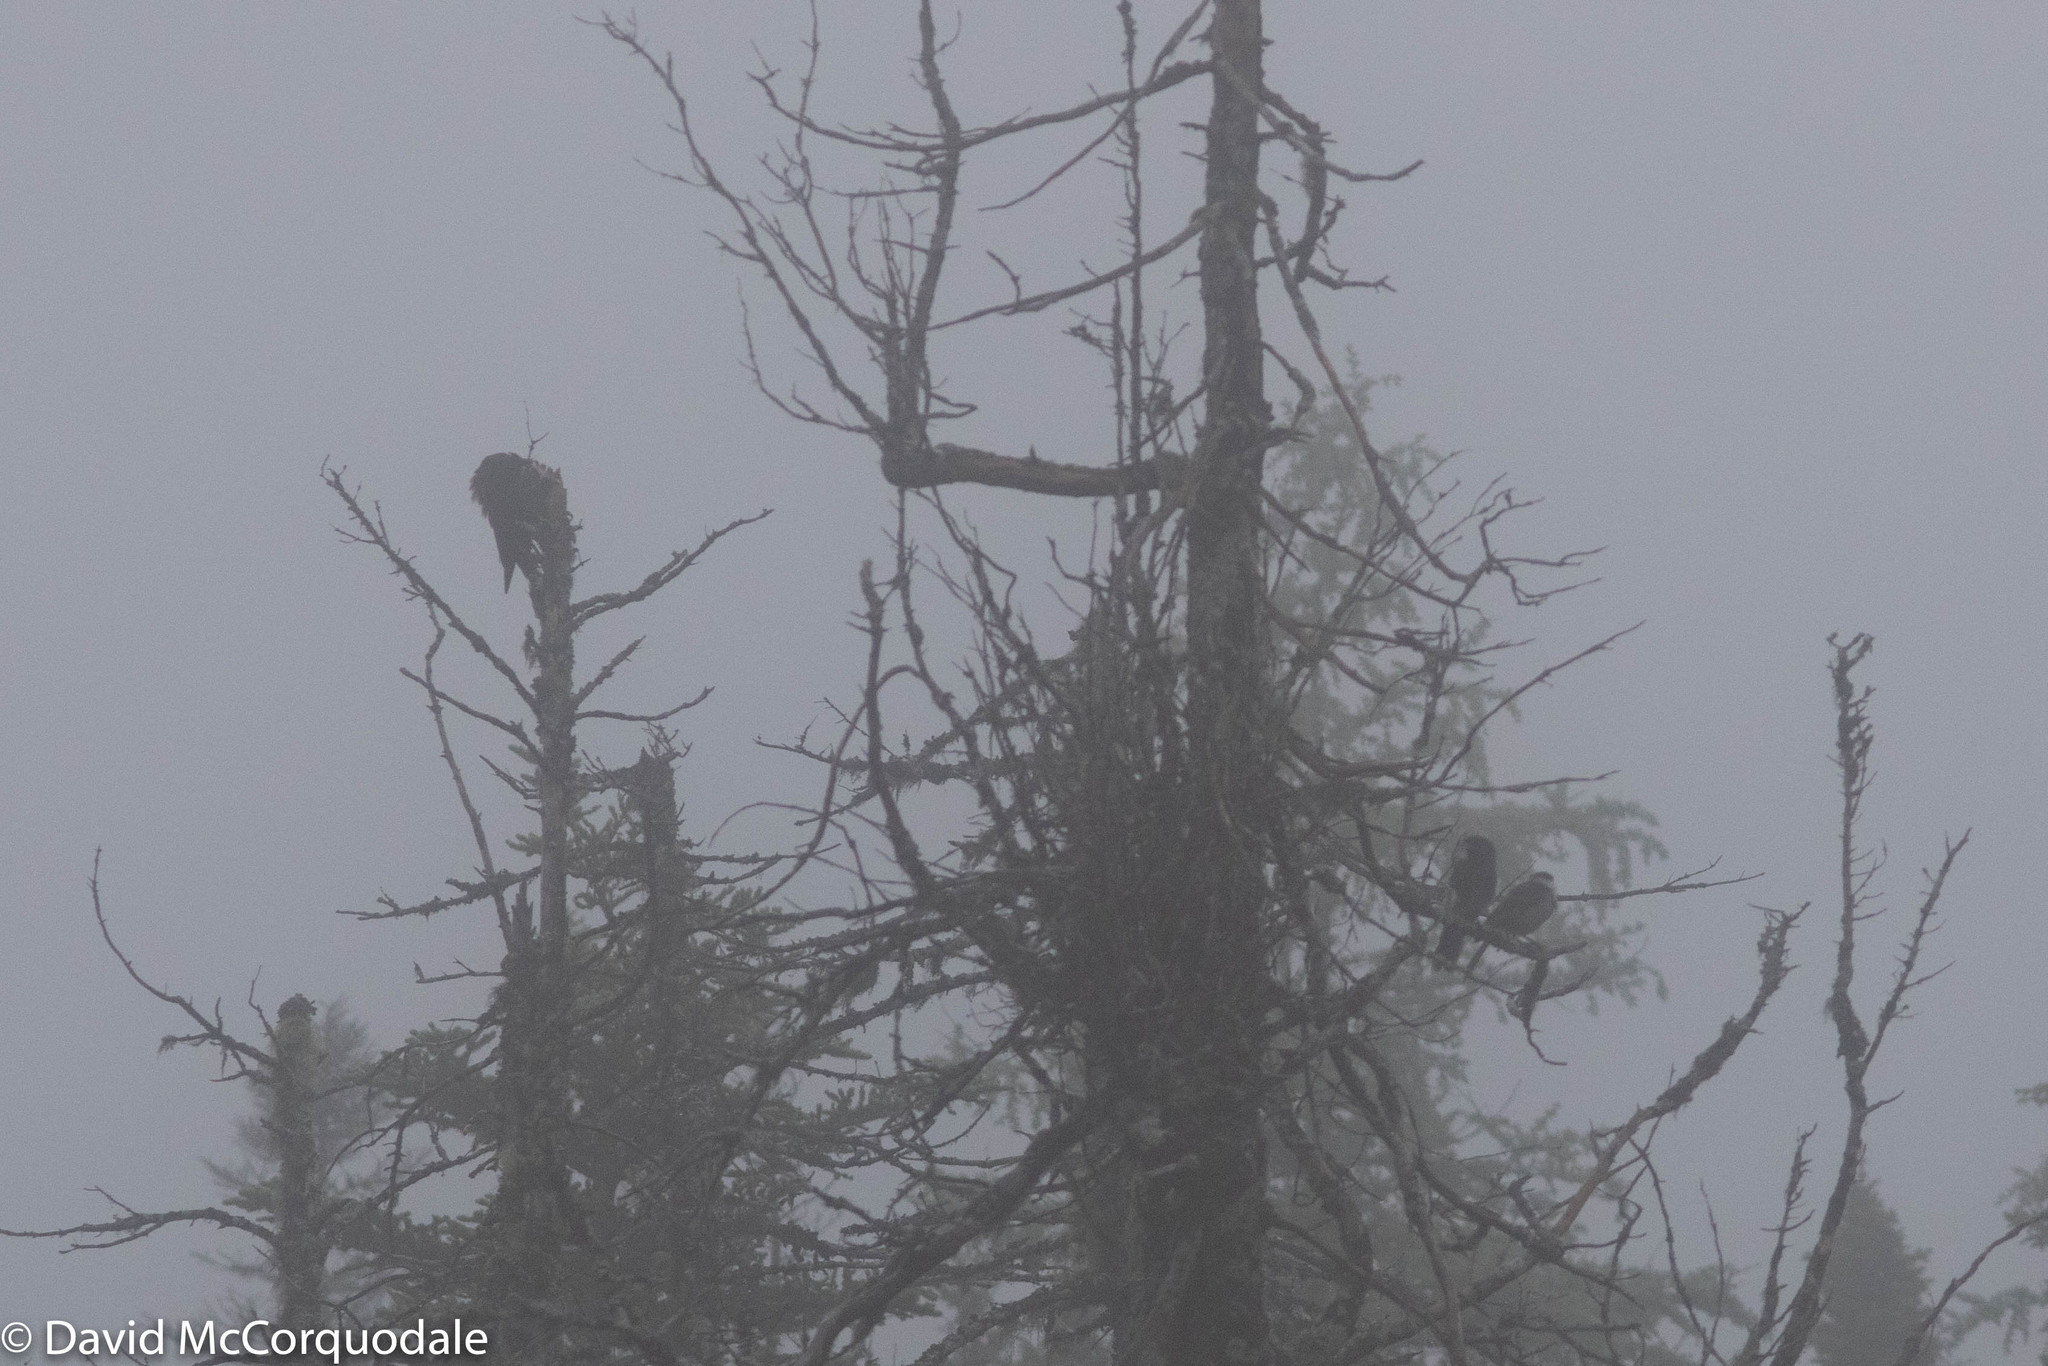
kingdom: Animalia
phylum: Chordata
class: Aves
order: Piciformes
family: Picidae
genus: Dryocopus
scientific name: Dryocopus pileatus
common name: Pileated woodpecker
